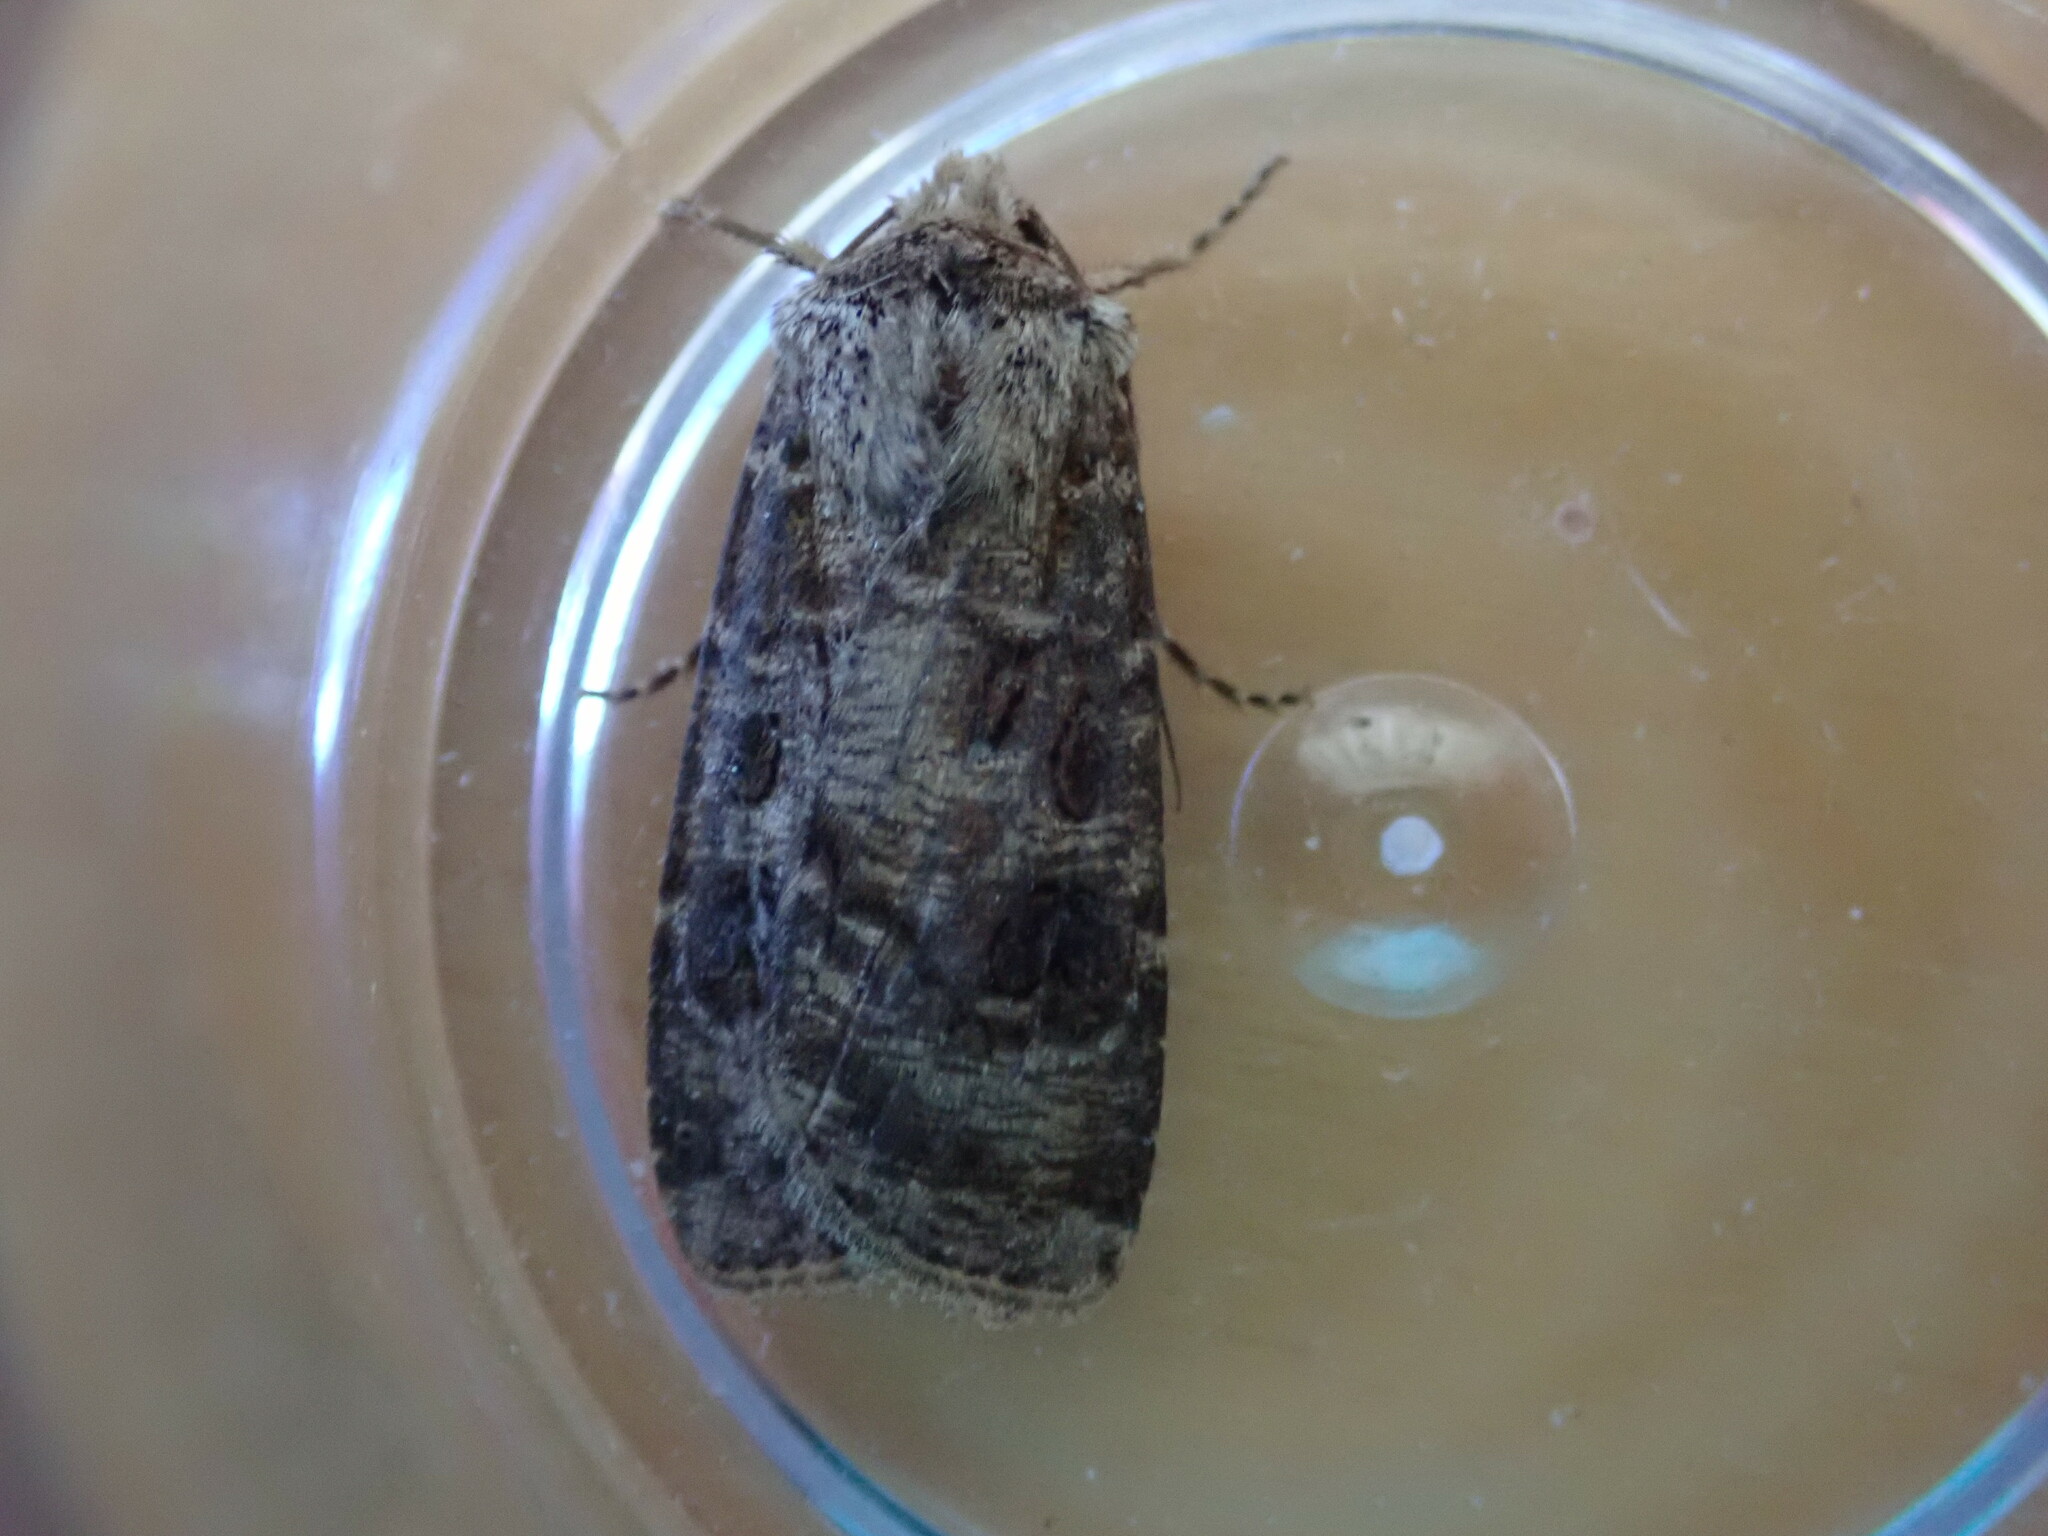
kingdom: Animalia
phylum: Arthropoda
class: Insecta
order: Lepidoptera
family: Noctuidae
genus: Agrotis
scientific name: Agrotis clavis
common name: Heart and club
